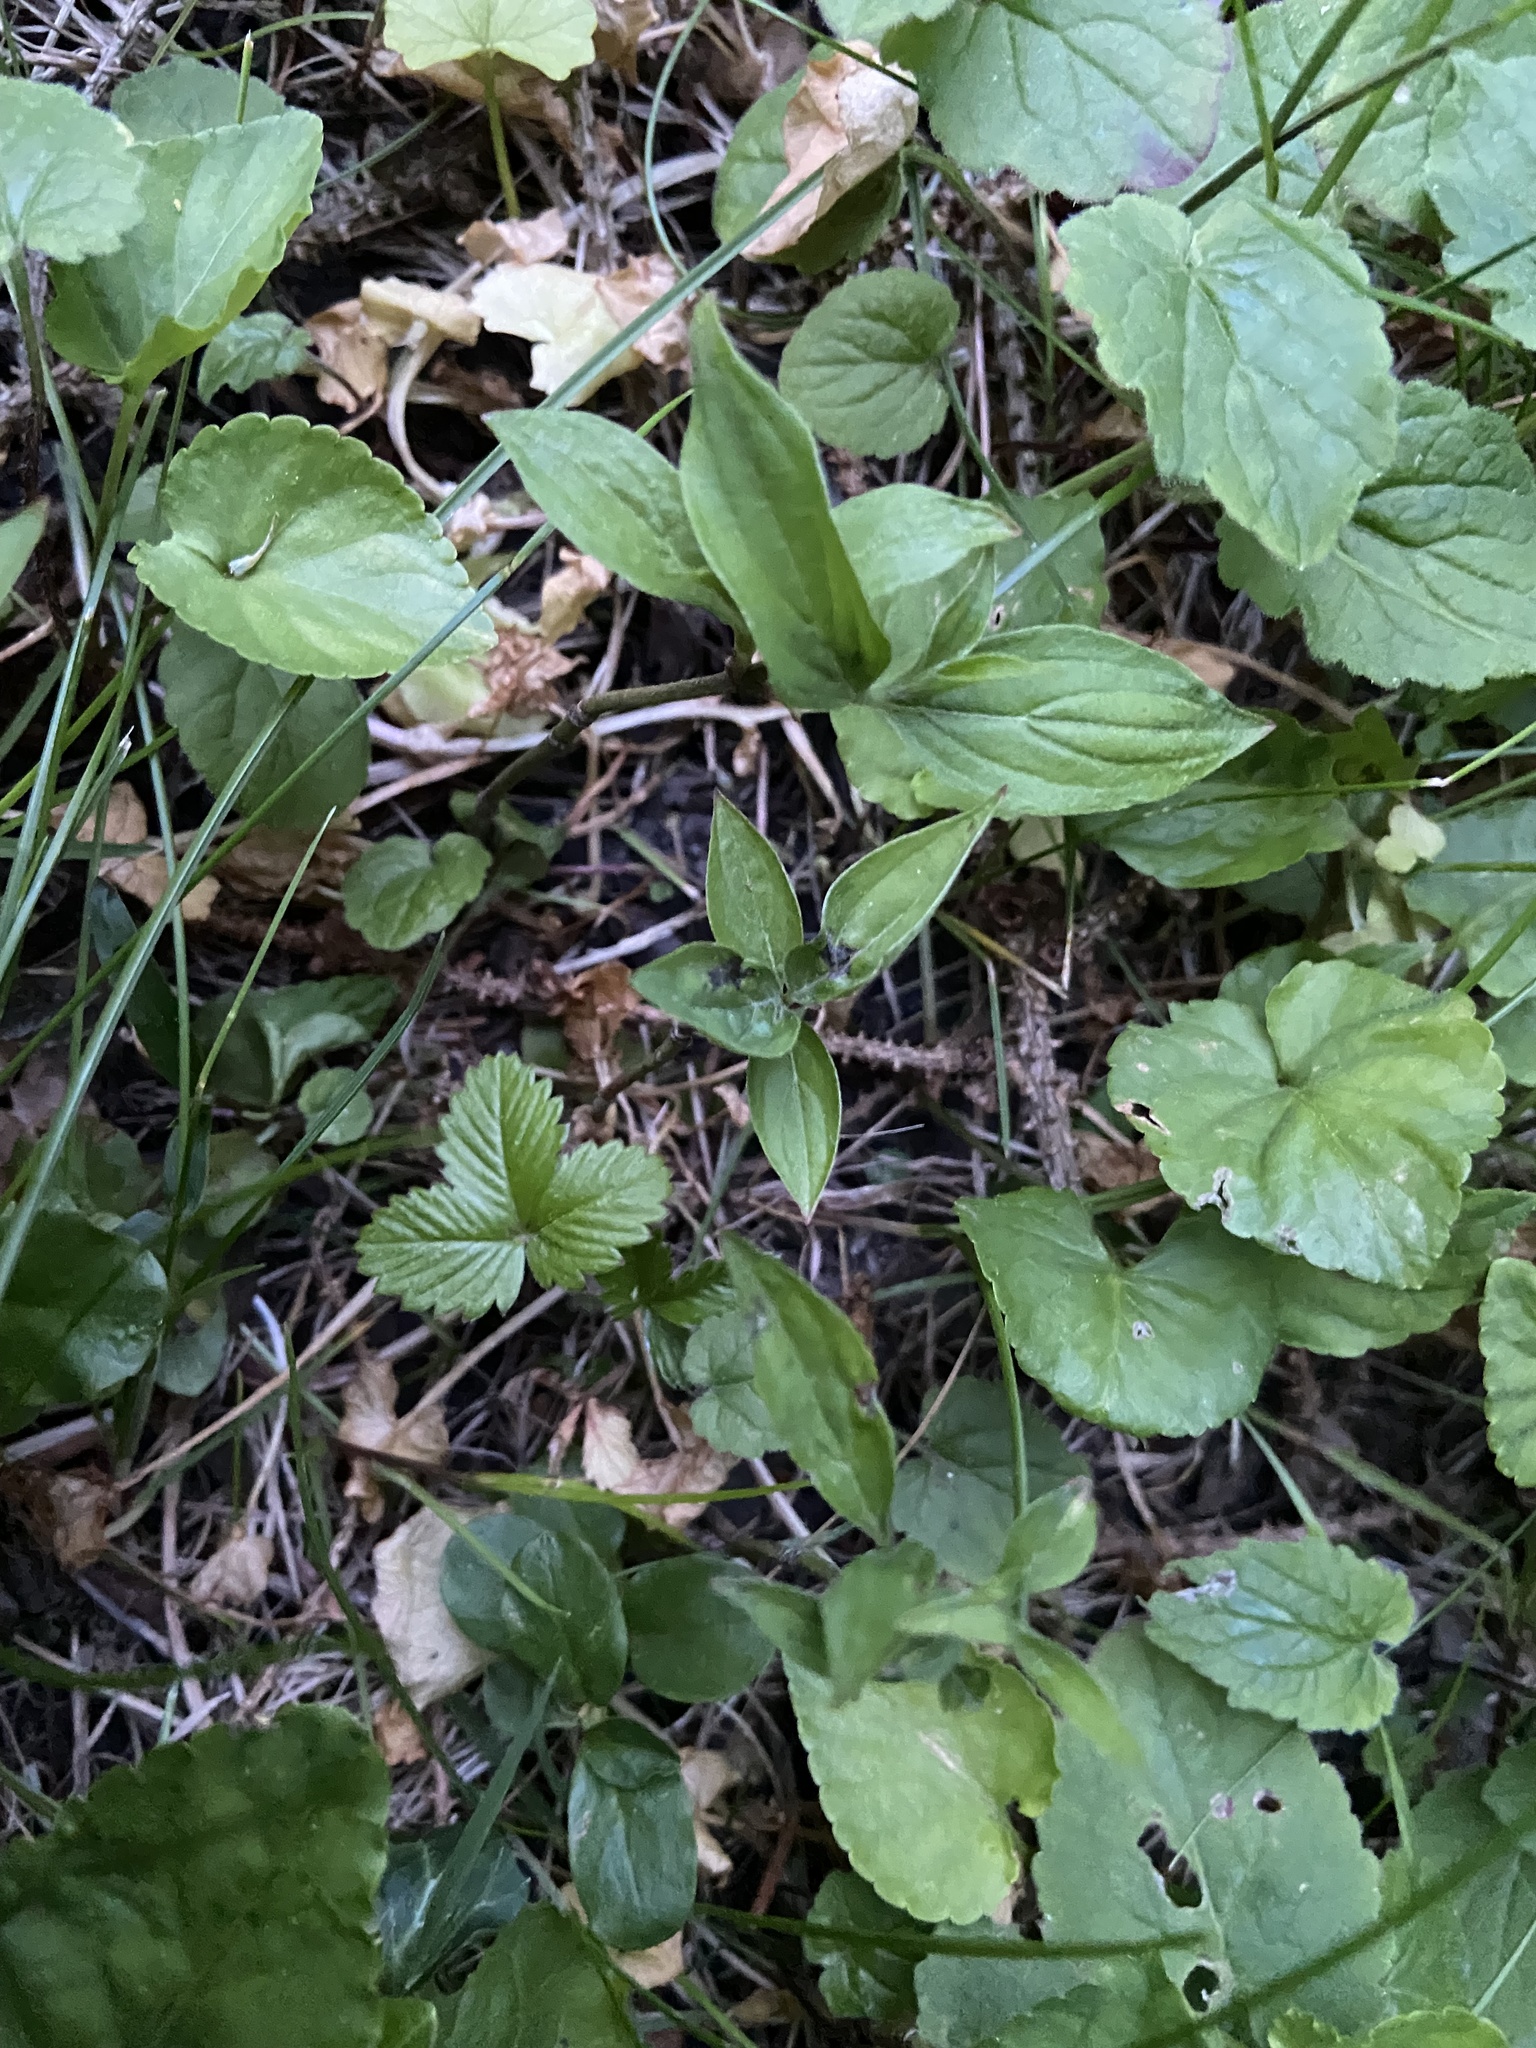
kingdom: Plantae
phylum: Tracheophyta
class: Magnoliopsida
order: Cornales
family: Cornaceae
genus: Cornus
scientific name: Cornus mas
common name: Cornelian-cherry
